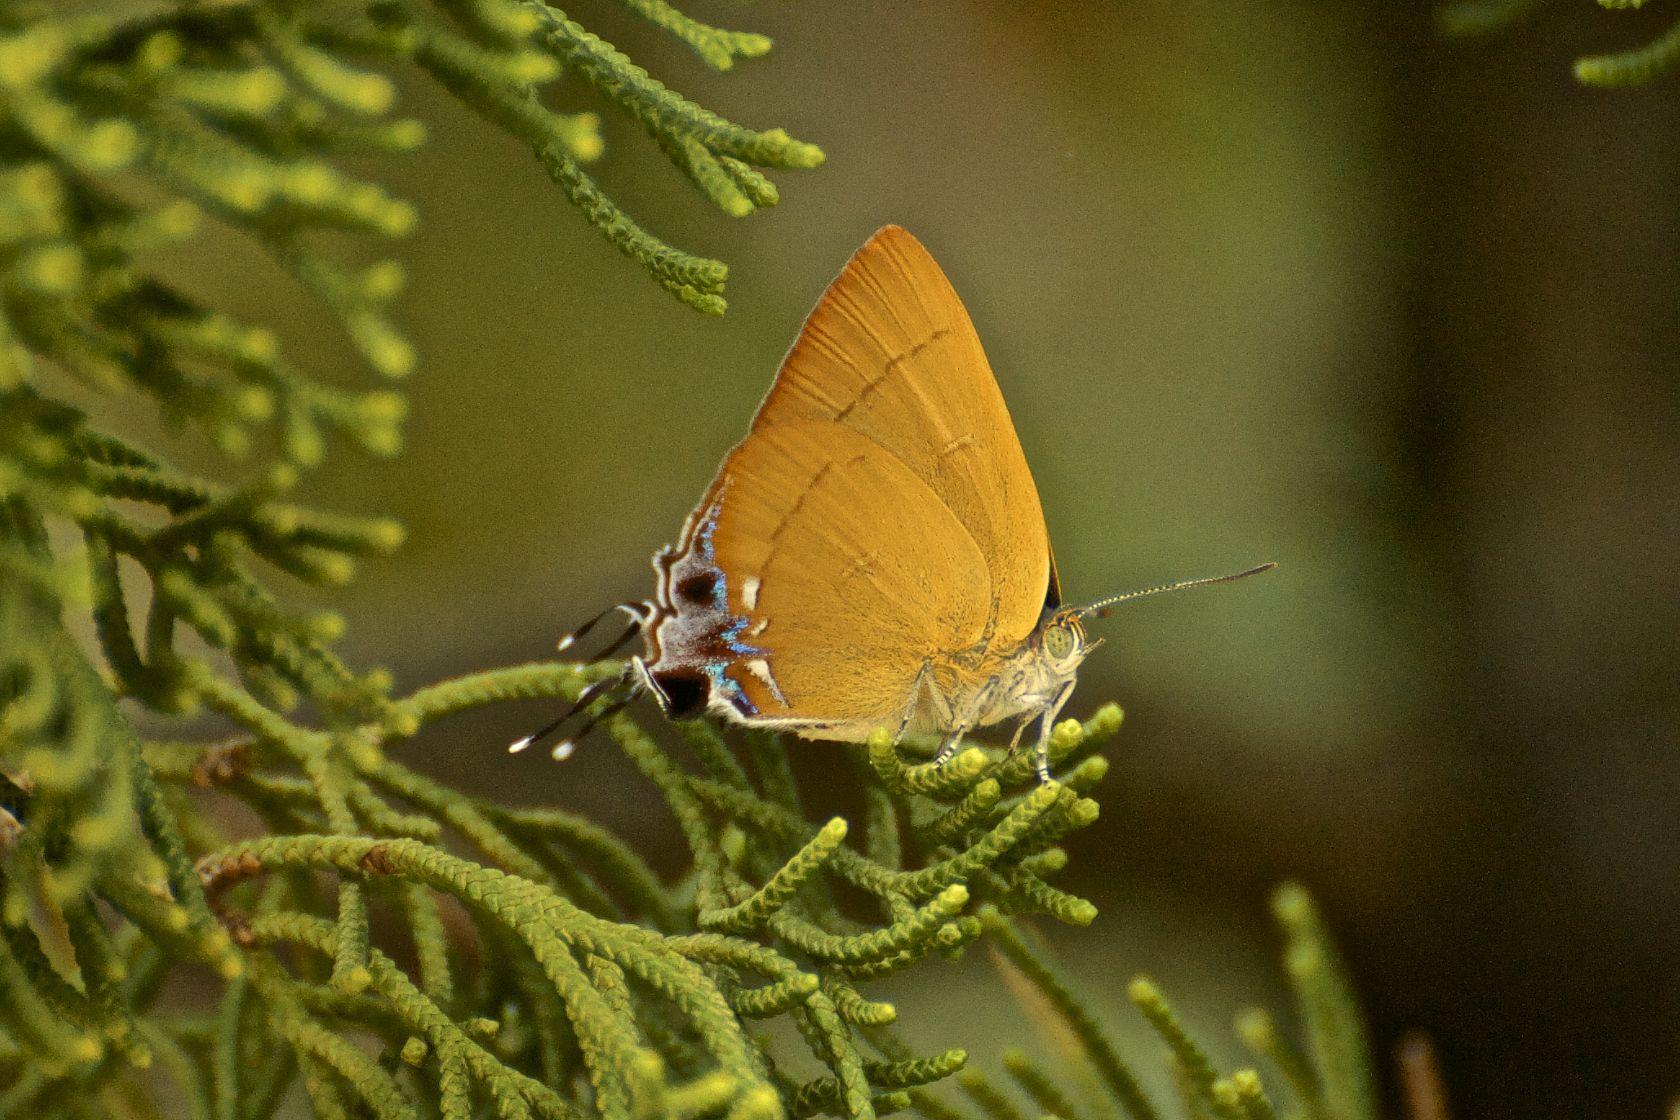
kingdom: Animalia
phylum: Arthropoda
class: Insecta
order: Lepidoptera
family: Lycaenidae
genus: Remelana
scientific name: Remelana jangala
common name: Chocolate royal
